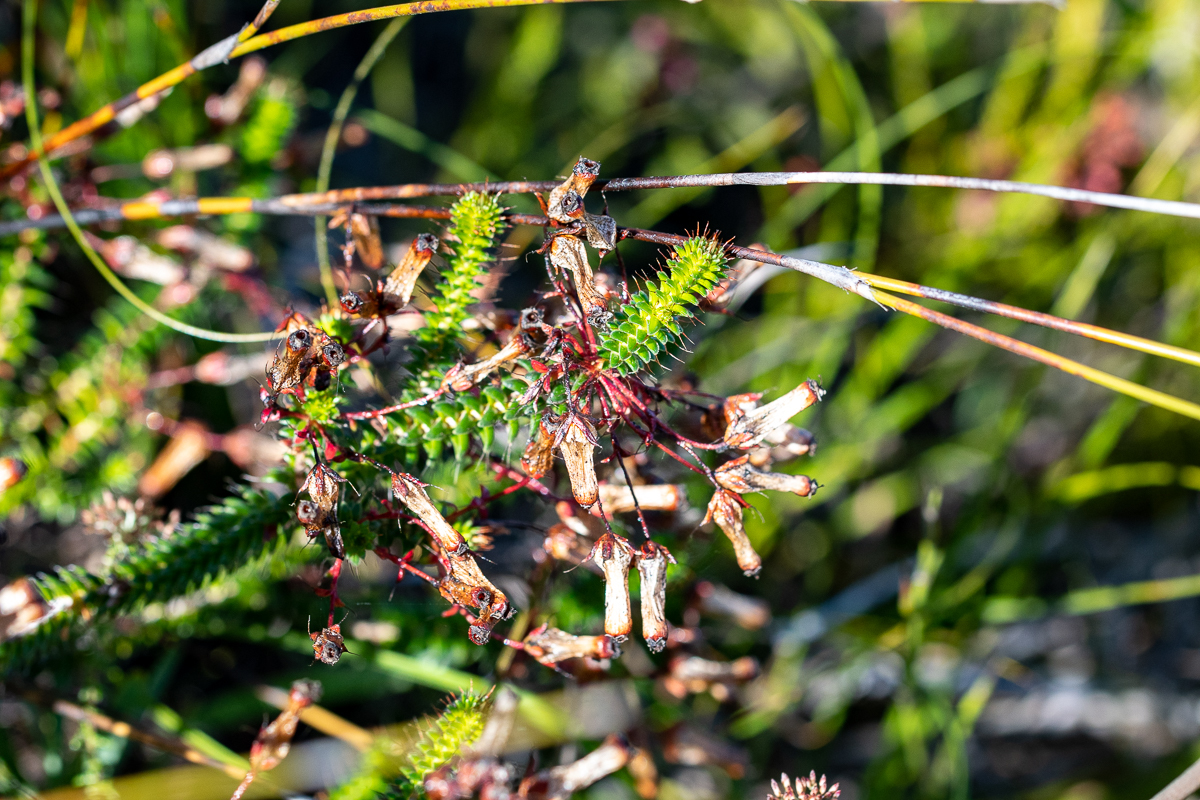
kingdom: Plantae
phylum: Tracheophyta
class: Magnoliopsida
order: Ericales
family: Ericaceae
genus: Erica
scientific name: Erica retorta
